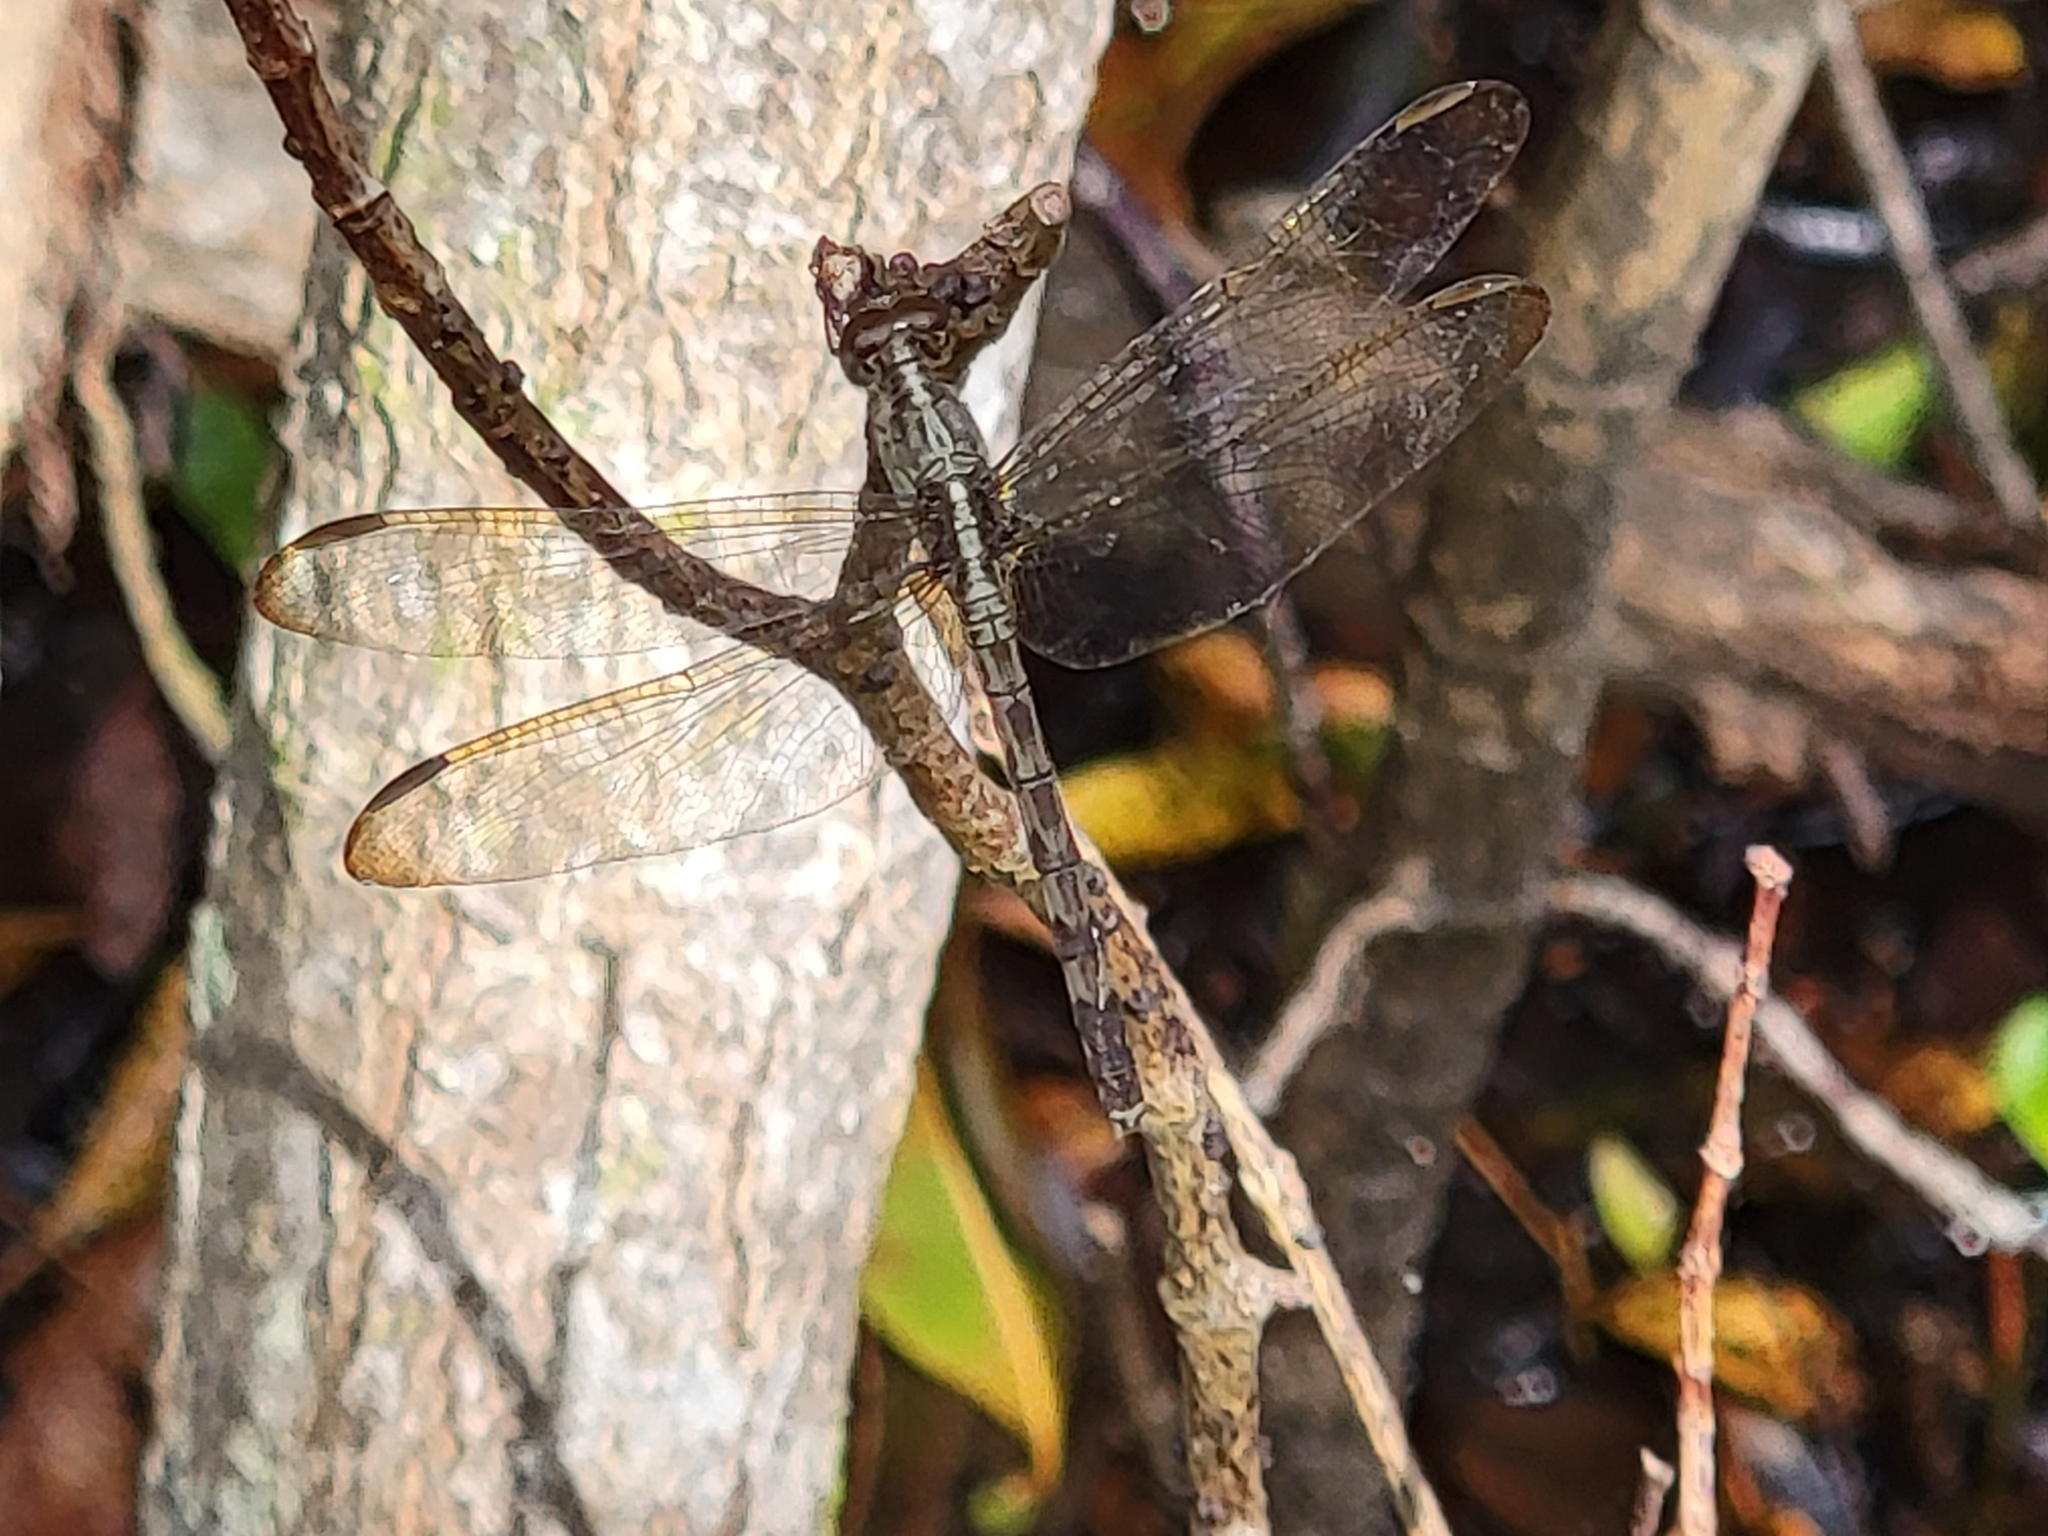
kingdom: Animalia
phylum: Arthropoda
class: Insecta
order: Odonata
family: Libellulidae
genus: Erythrodiplax
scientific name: Erythrodiplax umbrata
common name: Band-winged dragonlet
